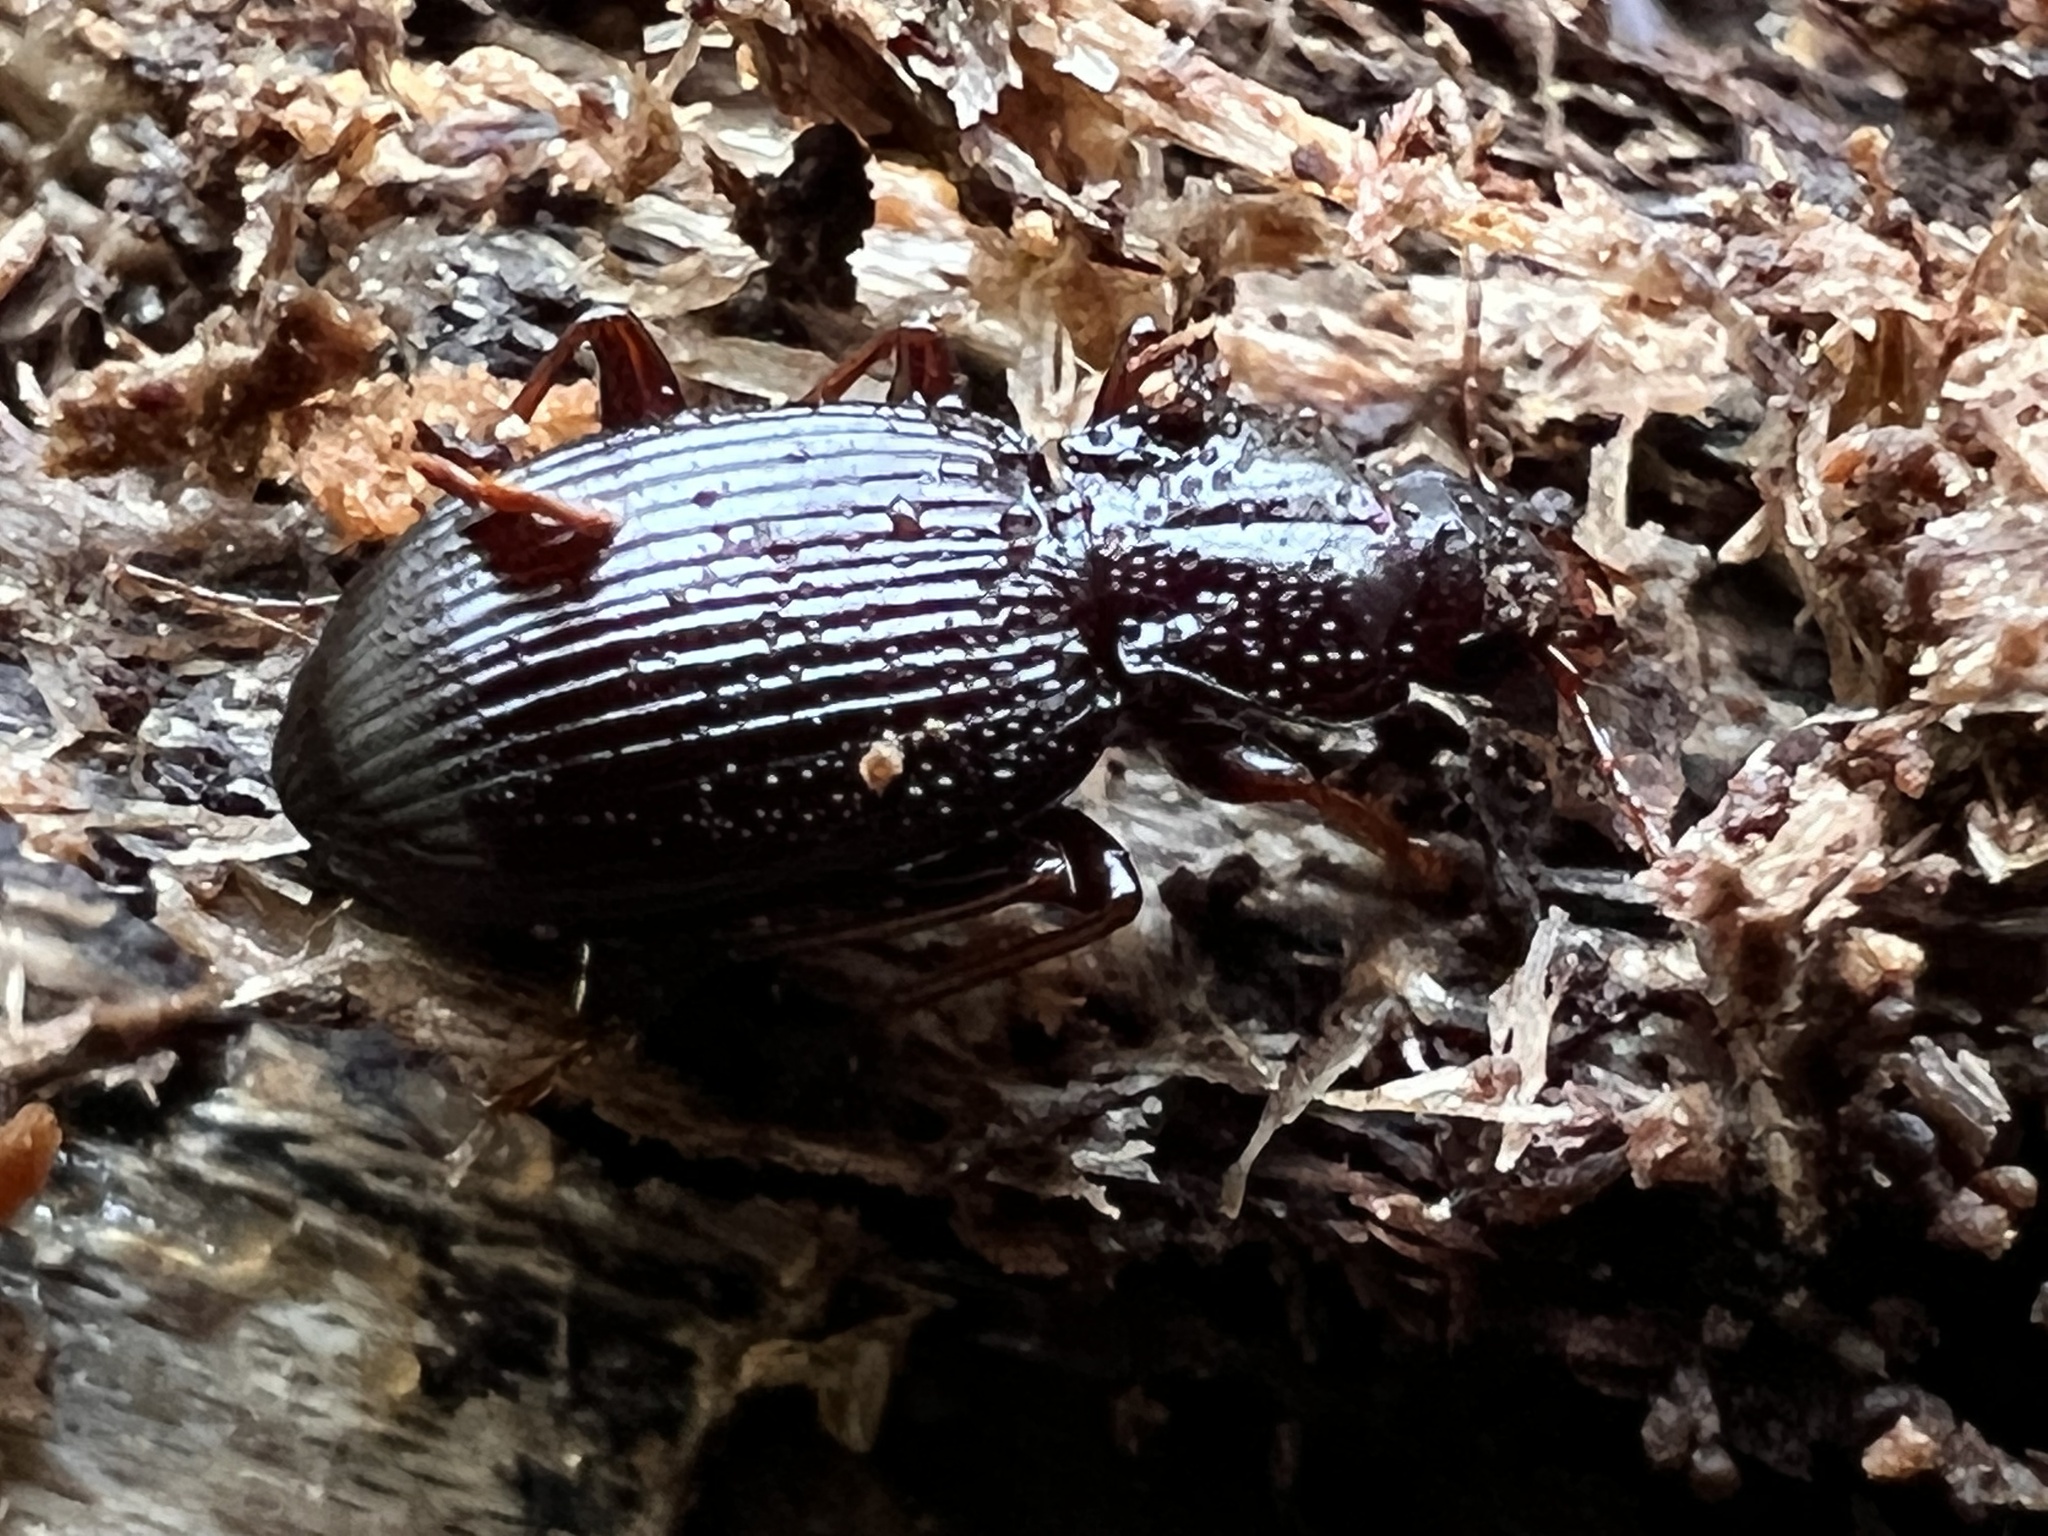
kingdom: Animalia
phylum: Arthropoda
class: Insecta
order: Coleoptera
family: Carabidae
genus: Gastrellarius
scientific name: Gastrellarius honestus
